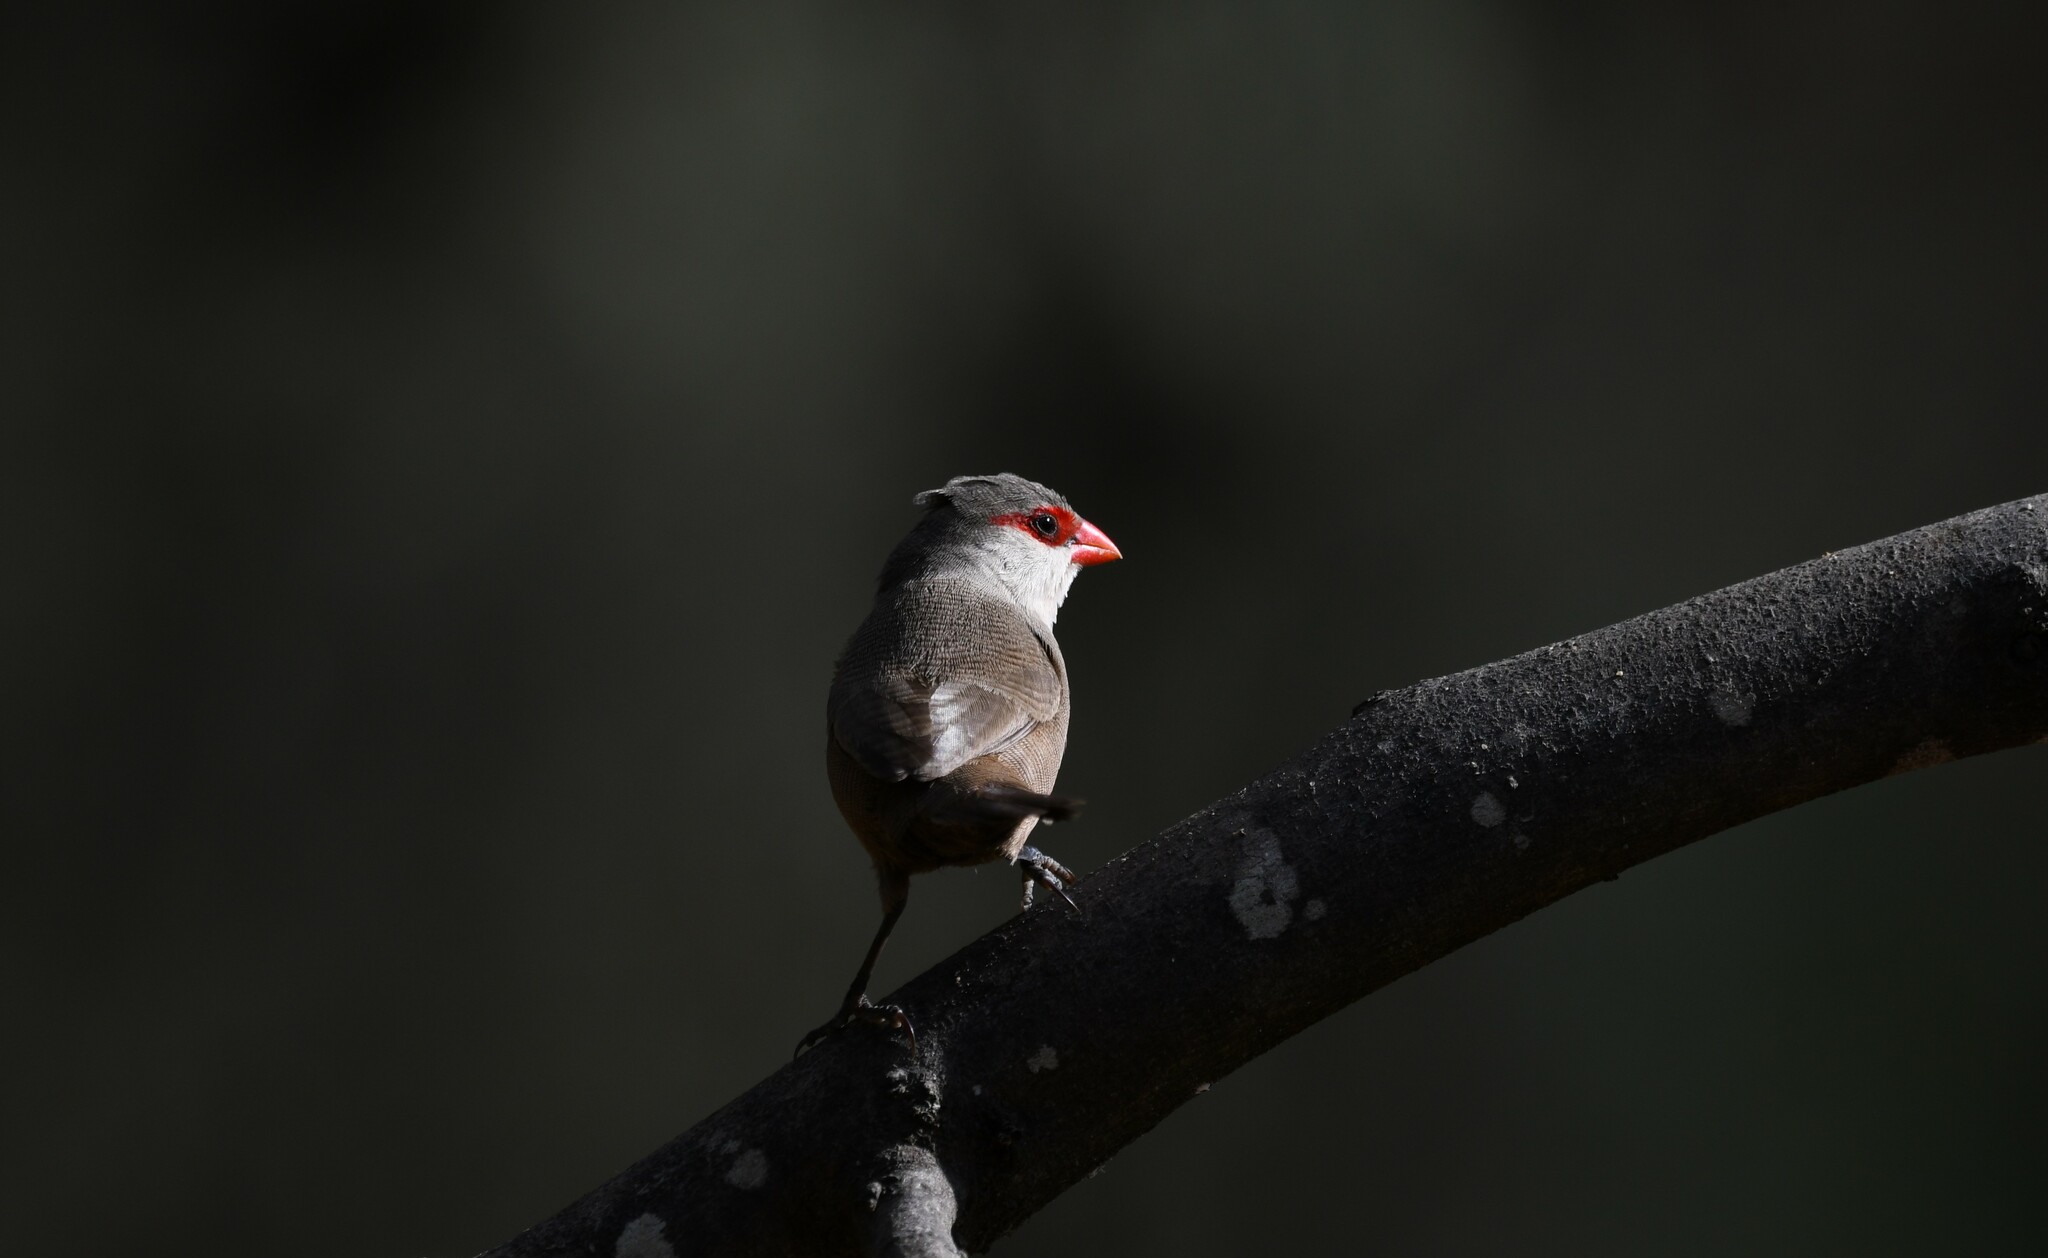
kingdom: Animalia
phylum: Chordata
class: Aves
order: Passeriformes
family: Estrildidae
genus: Estrilda
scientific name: Estrilda astrild
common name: Common waxbill
